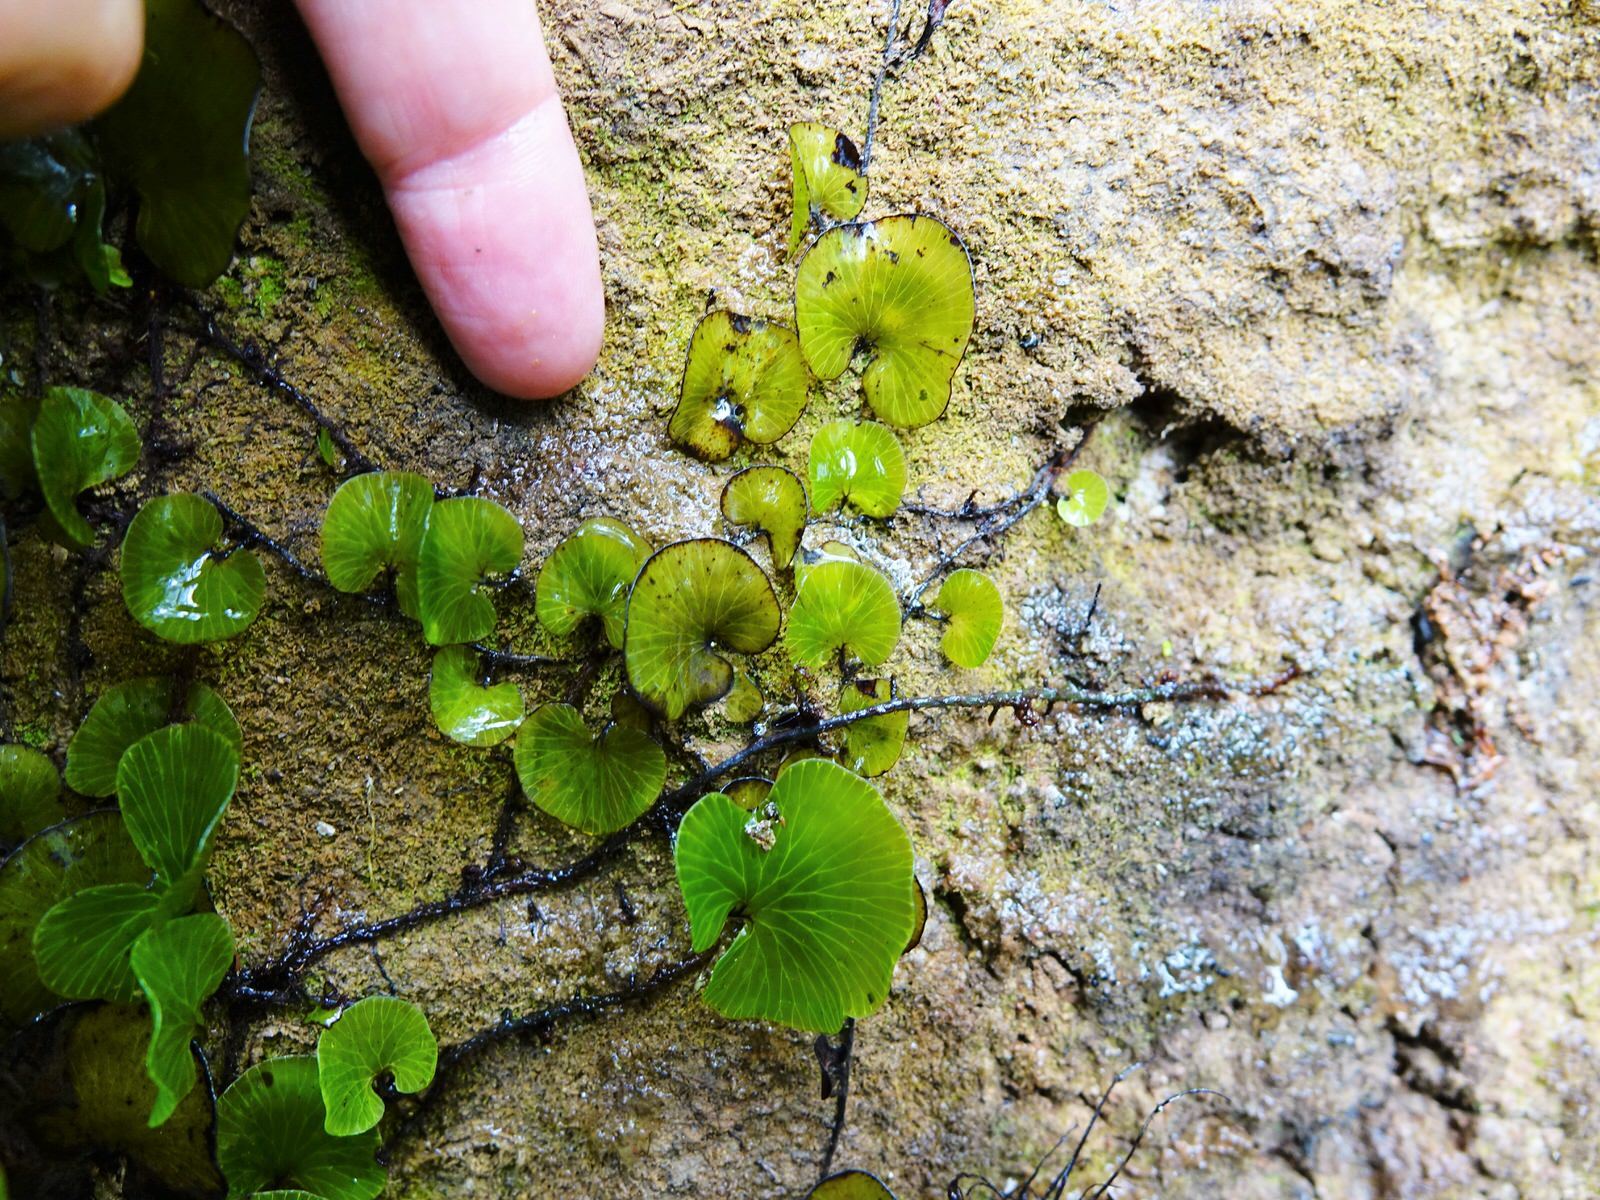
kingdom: Plantae
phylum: Tracheophyta
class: Polypodiopsida
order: Hymenophyllales
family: Hymenophyllaceae
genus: Hymenophyllum
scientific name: Hymenophyllum nephrophyllum
